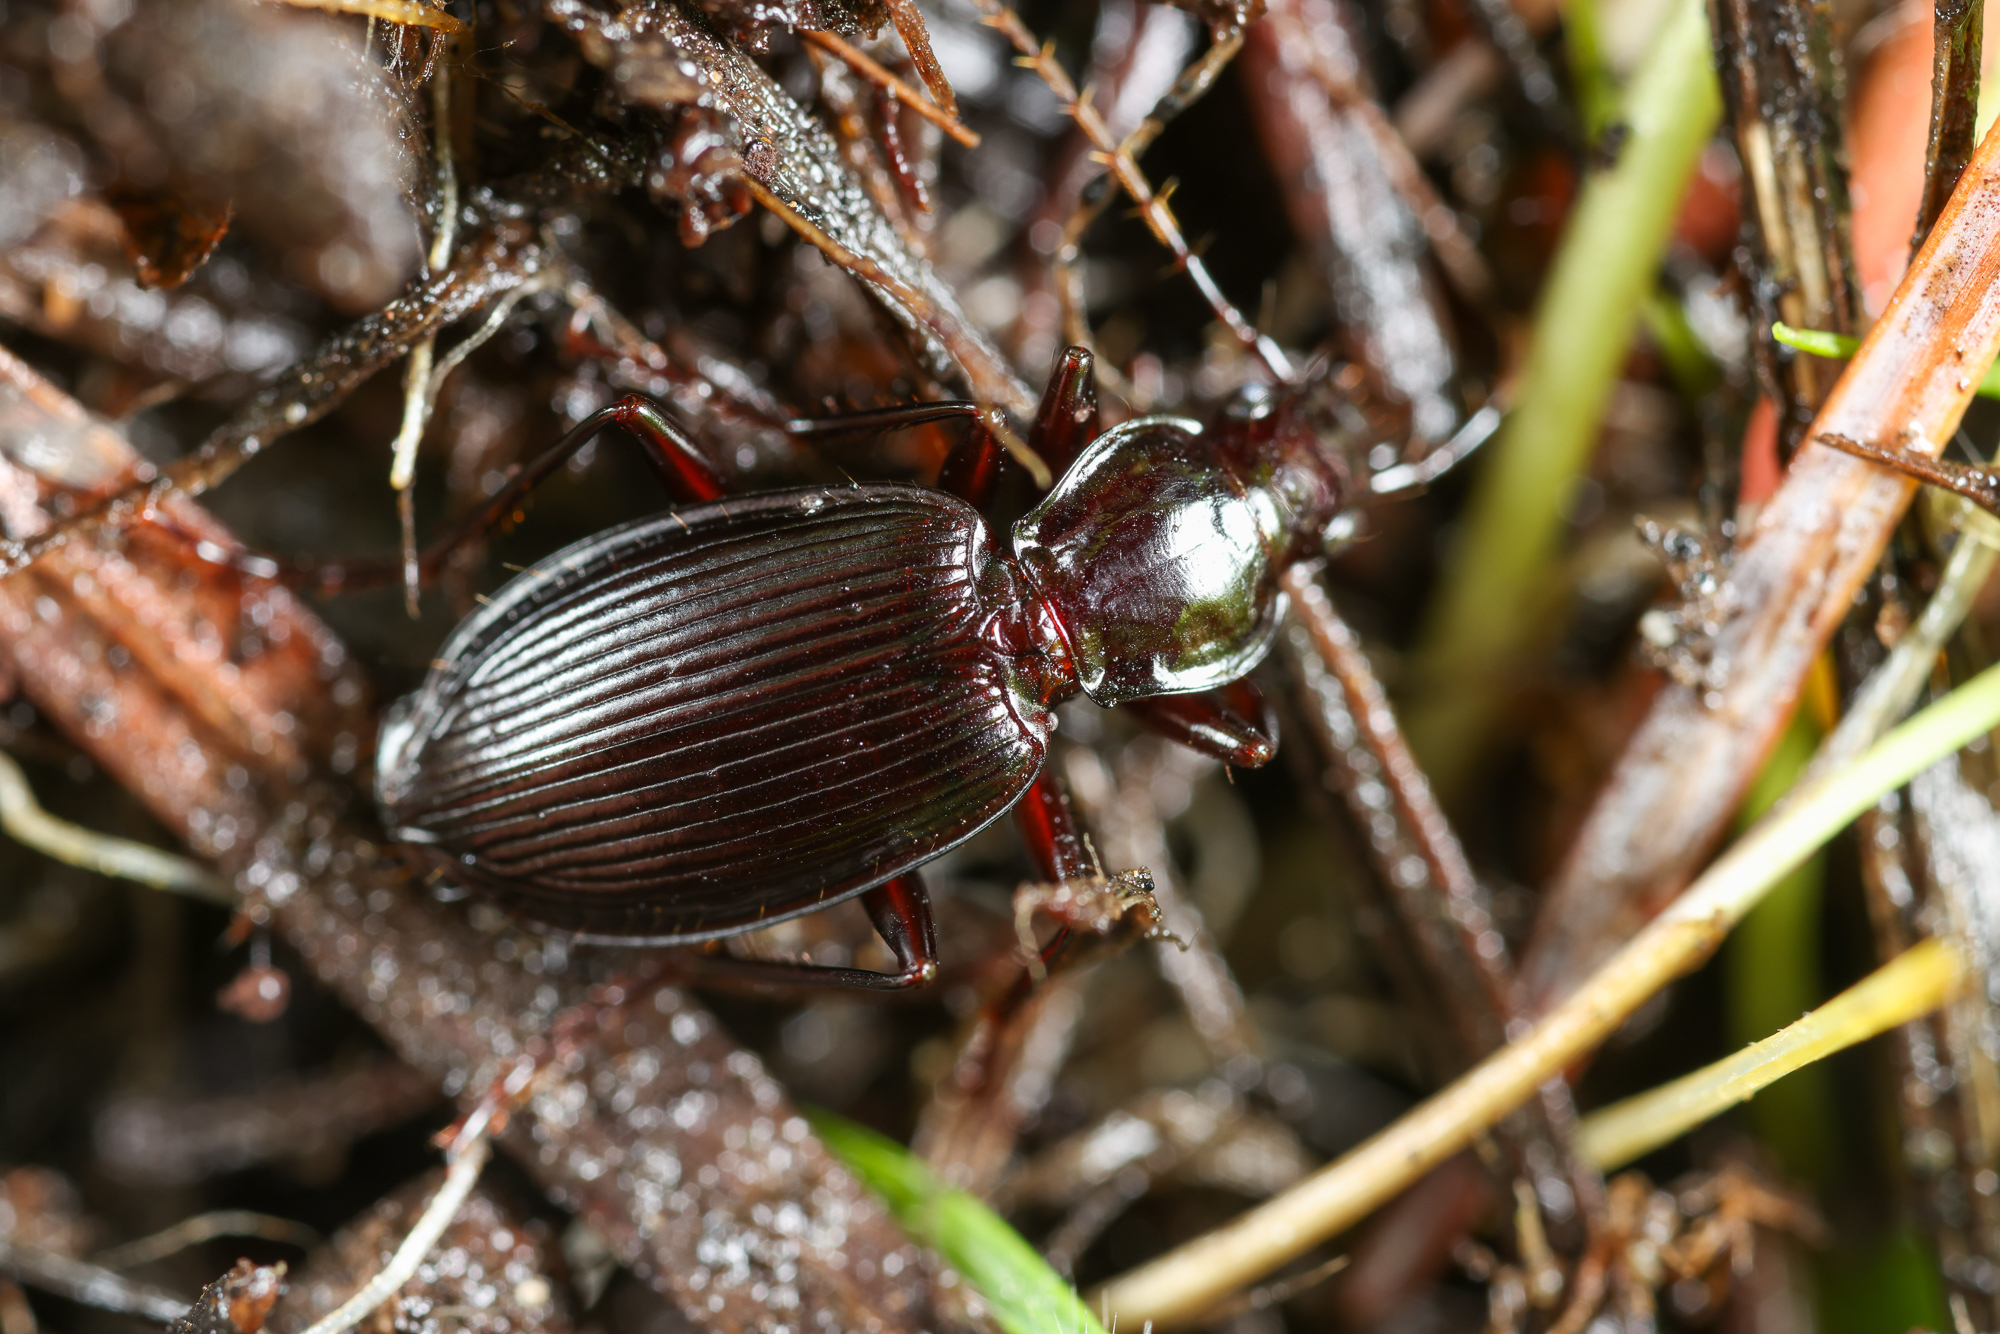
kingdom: Animalia
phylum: Arthropoda
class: Insecta
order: Coleoptera
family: Carabidae
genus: Platynus
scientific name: Platynus ovipennis
